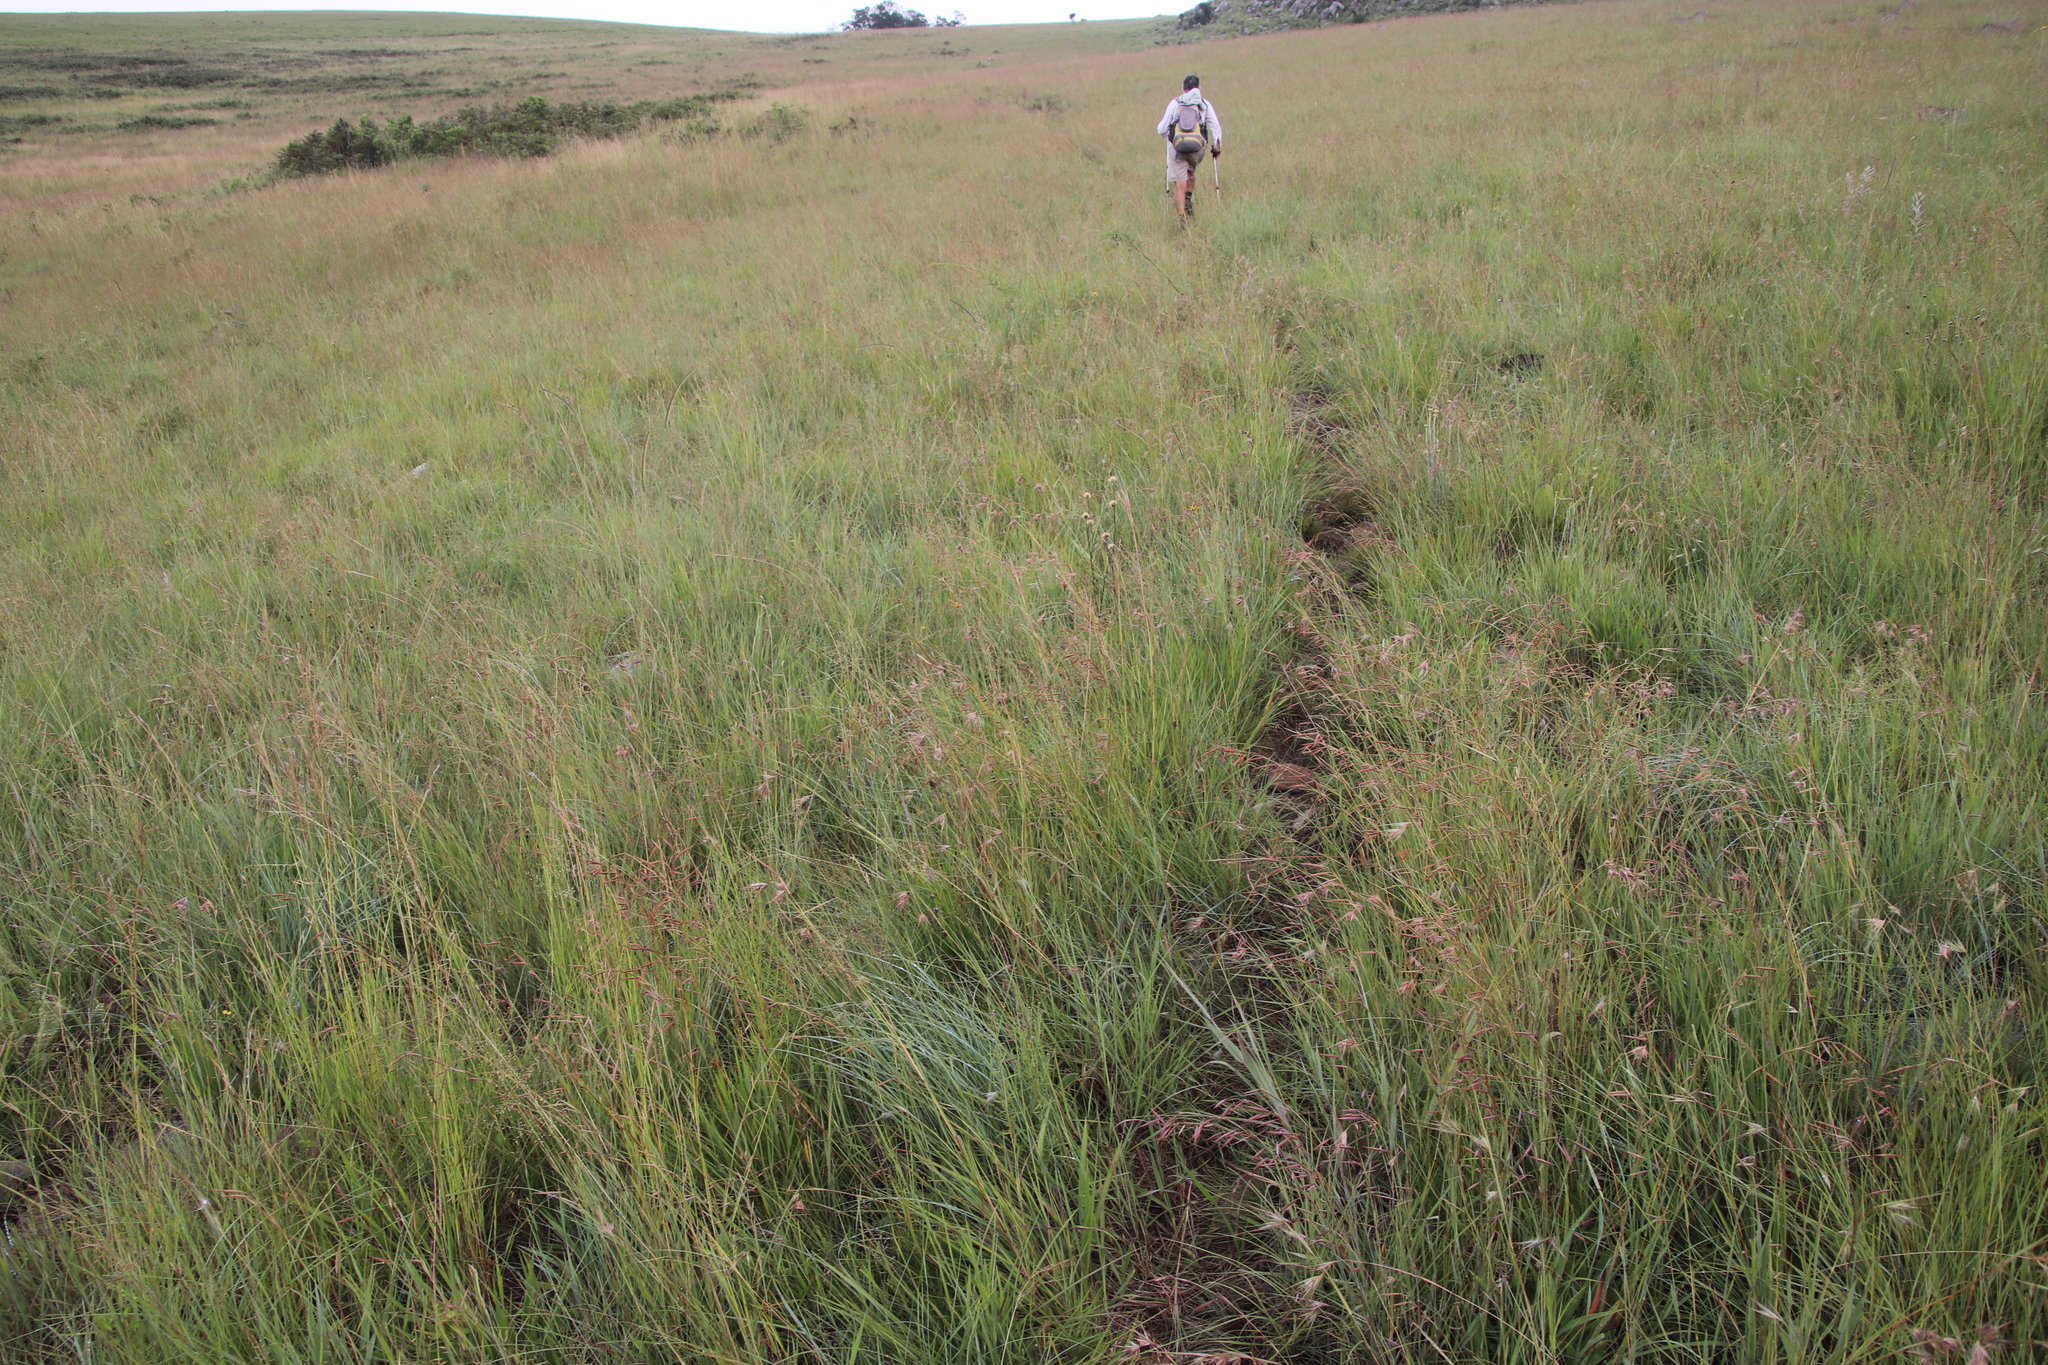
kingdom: Plantae
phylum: Tracheophyta
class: Liliopsida
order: Poales
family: Poaceae
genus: Themeda
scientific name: Themeda triandra
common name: Kangaroo grass
